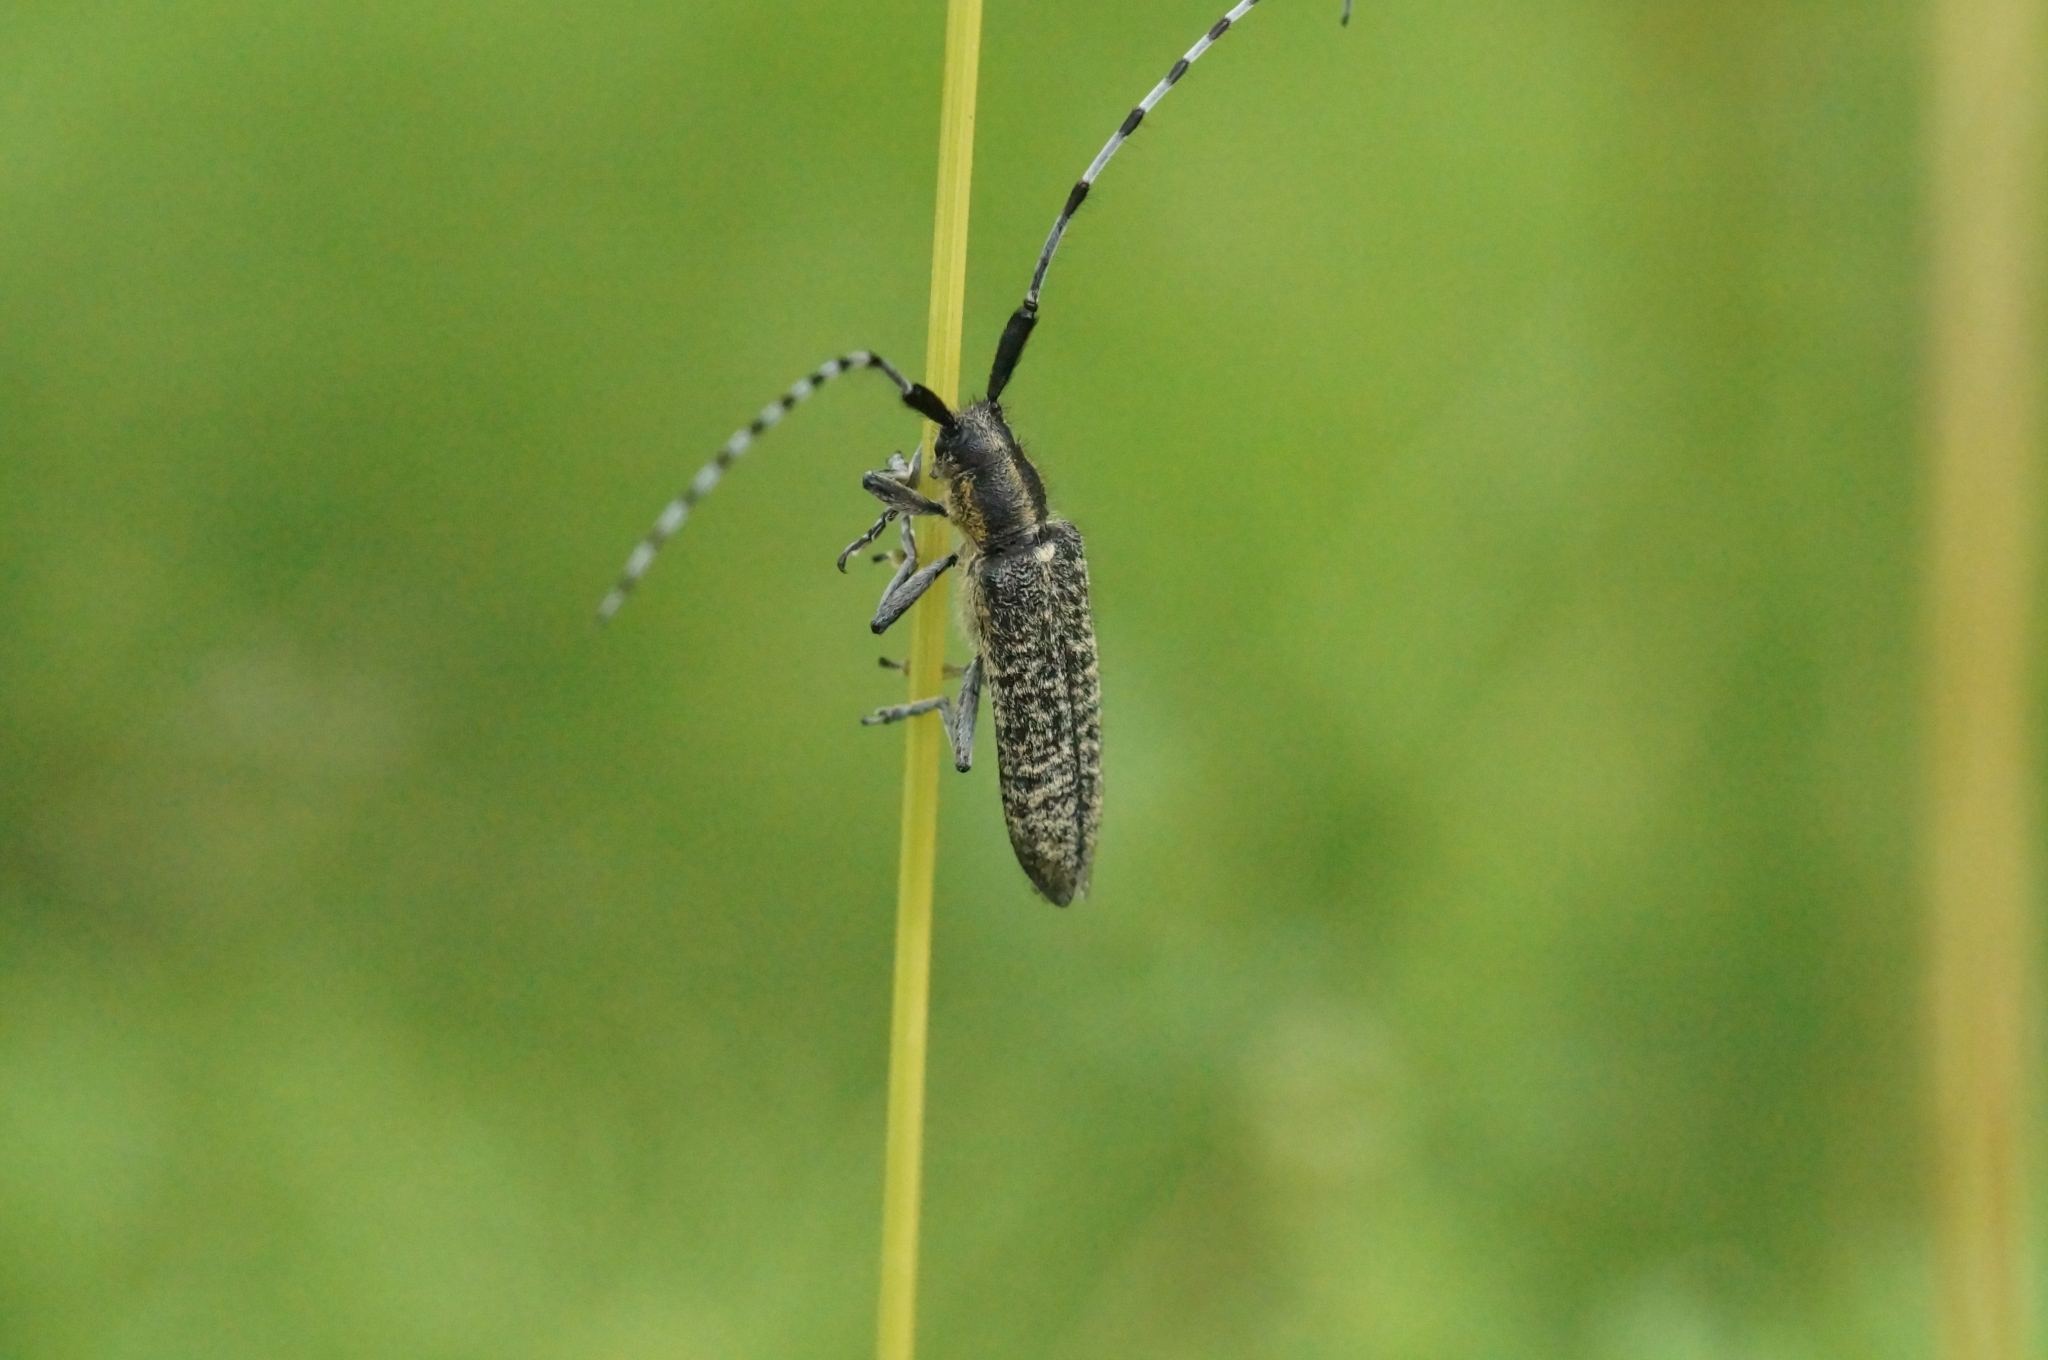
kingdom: Animalia
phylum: Arthropoda
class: Insecta
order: Coleoptera
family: Cerambycidae
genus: Agapanthia
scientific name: Agapanthia villosoviridescens
